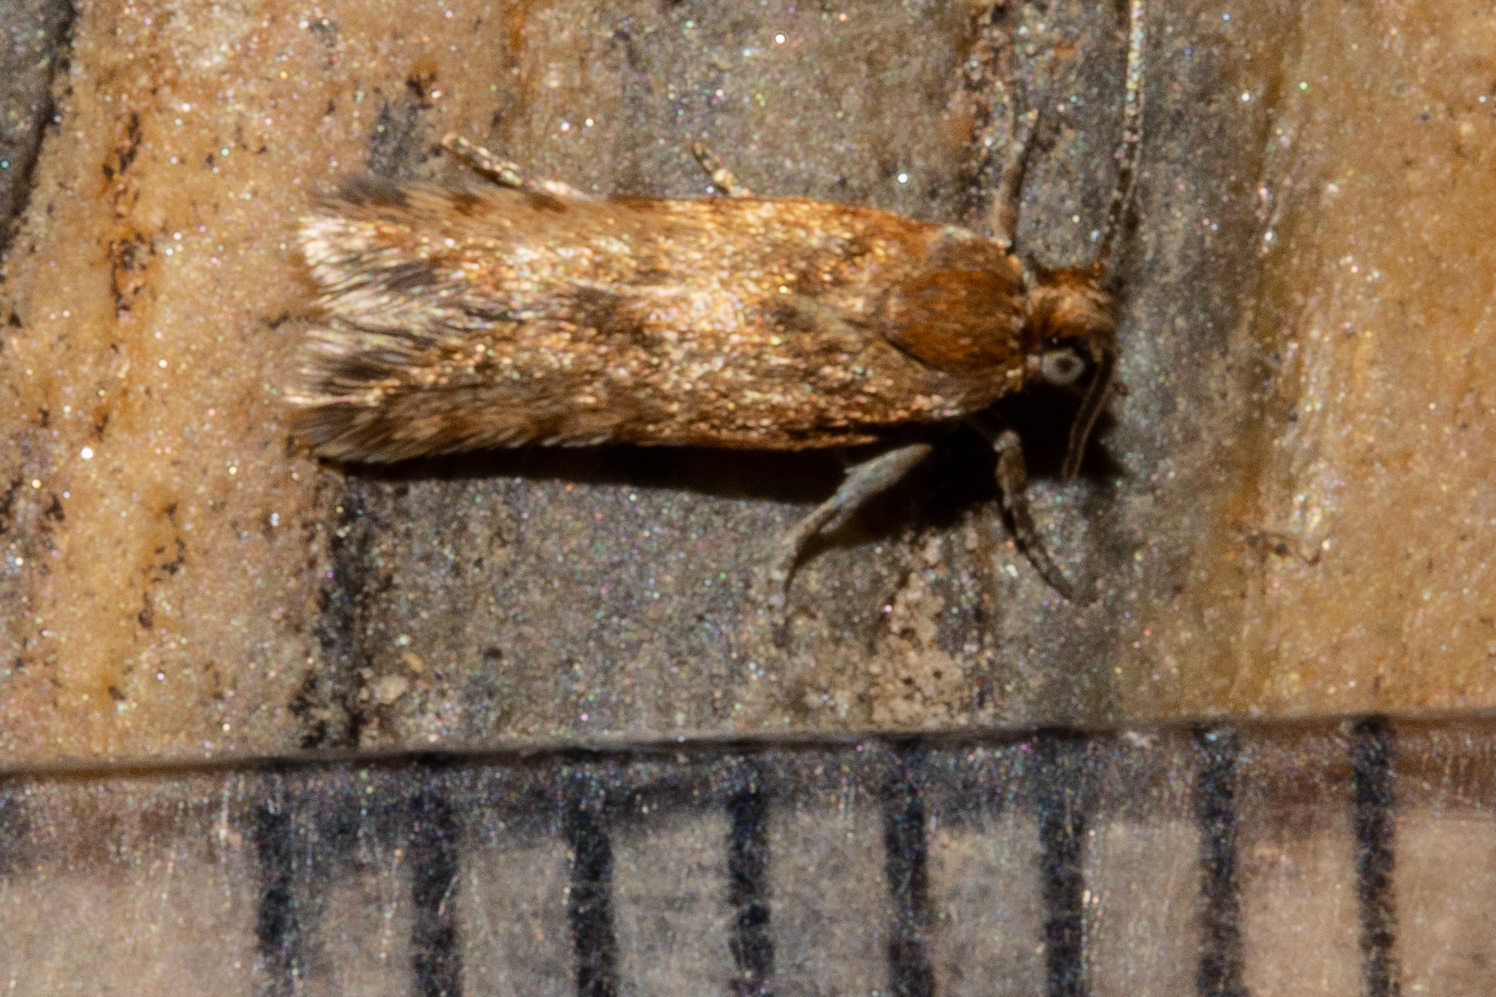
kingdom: Animalia
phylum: Arthropoda
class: Insecta
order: Lepidoptera
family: Tortricidae
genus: Eurythecta
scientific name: Eurythecta zelaea
